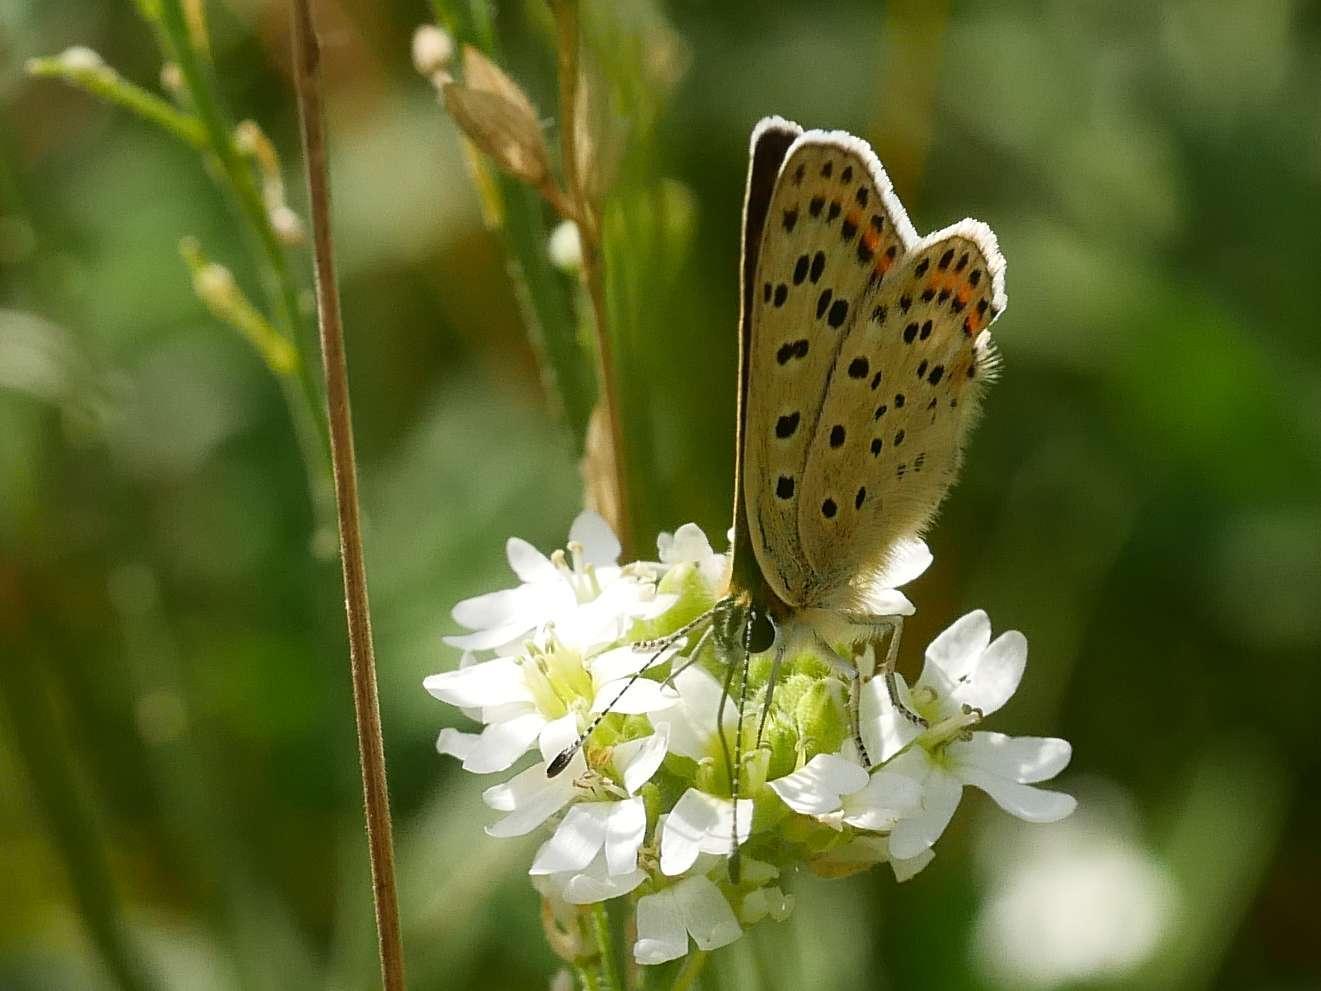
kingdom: Animalia
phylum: Arthropoda
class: Insecta
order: Lepidoptera
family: Lycaenidae
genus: Loweia
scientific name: Loweia tityrus
